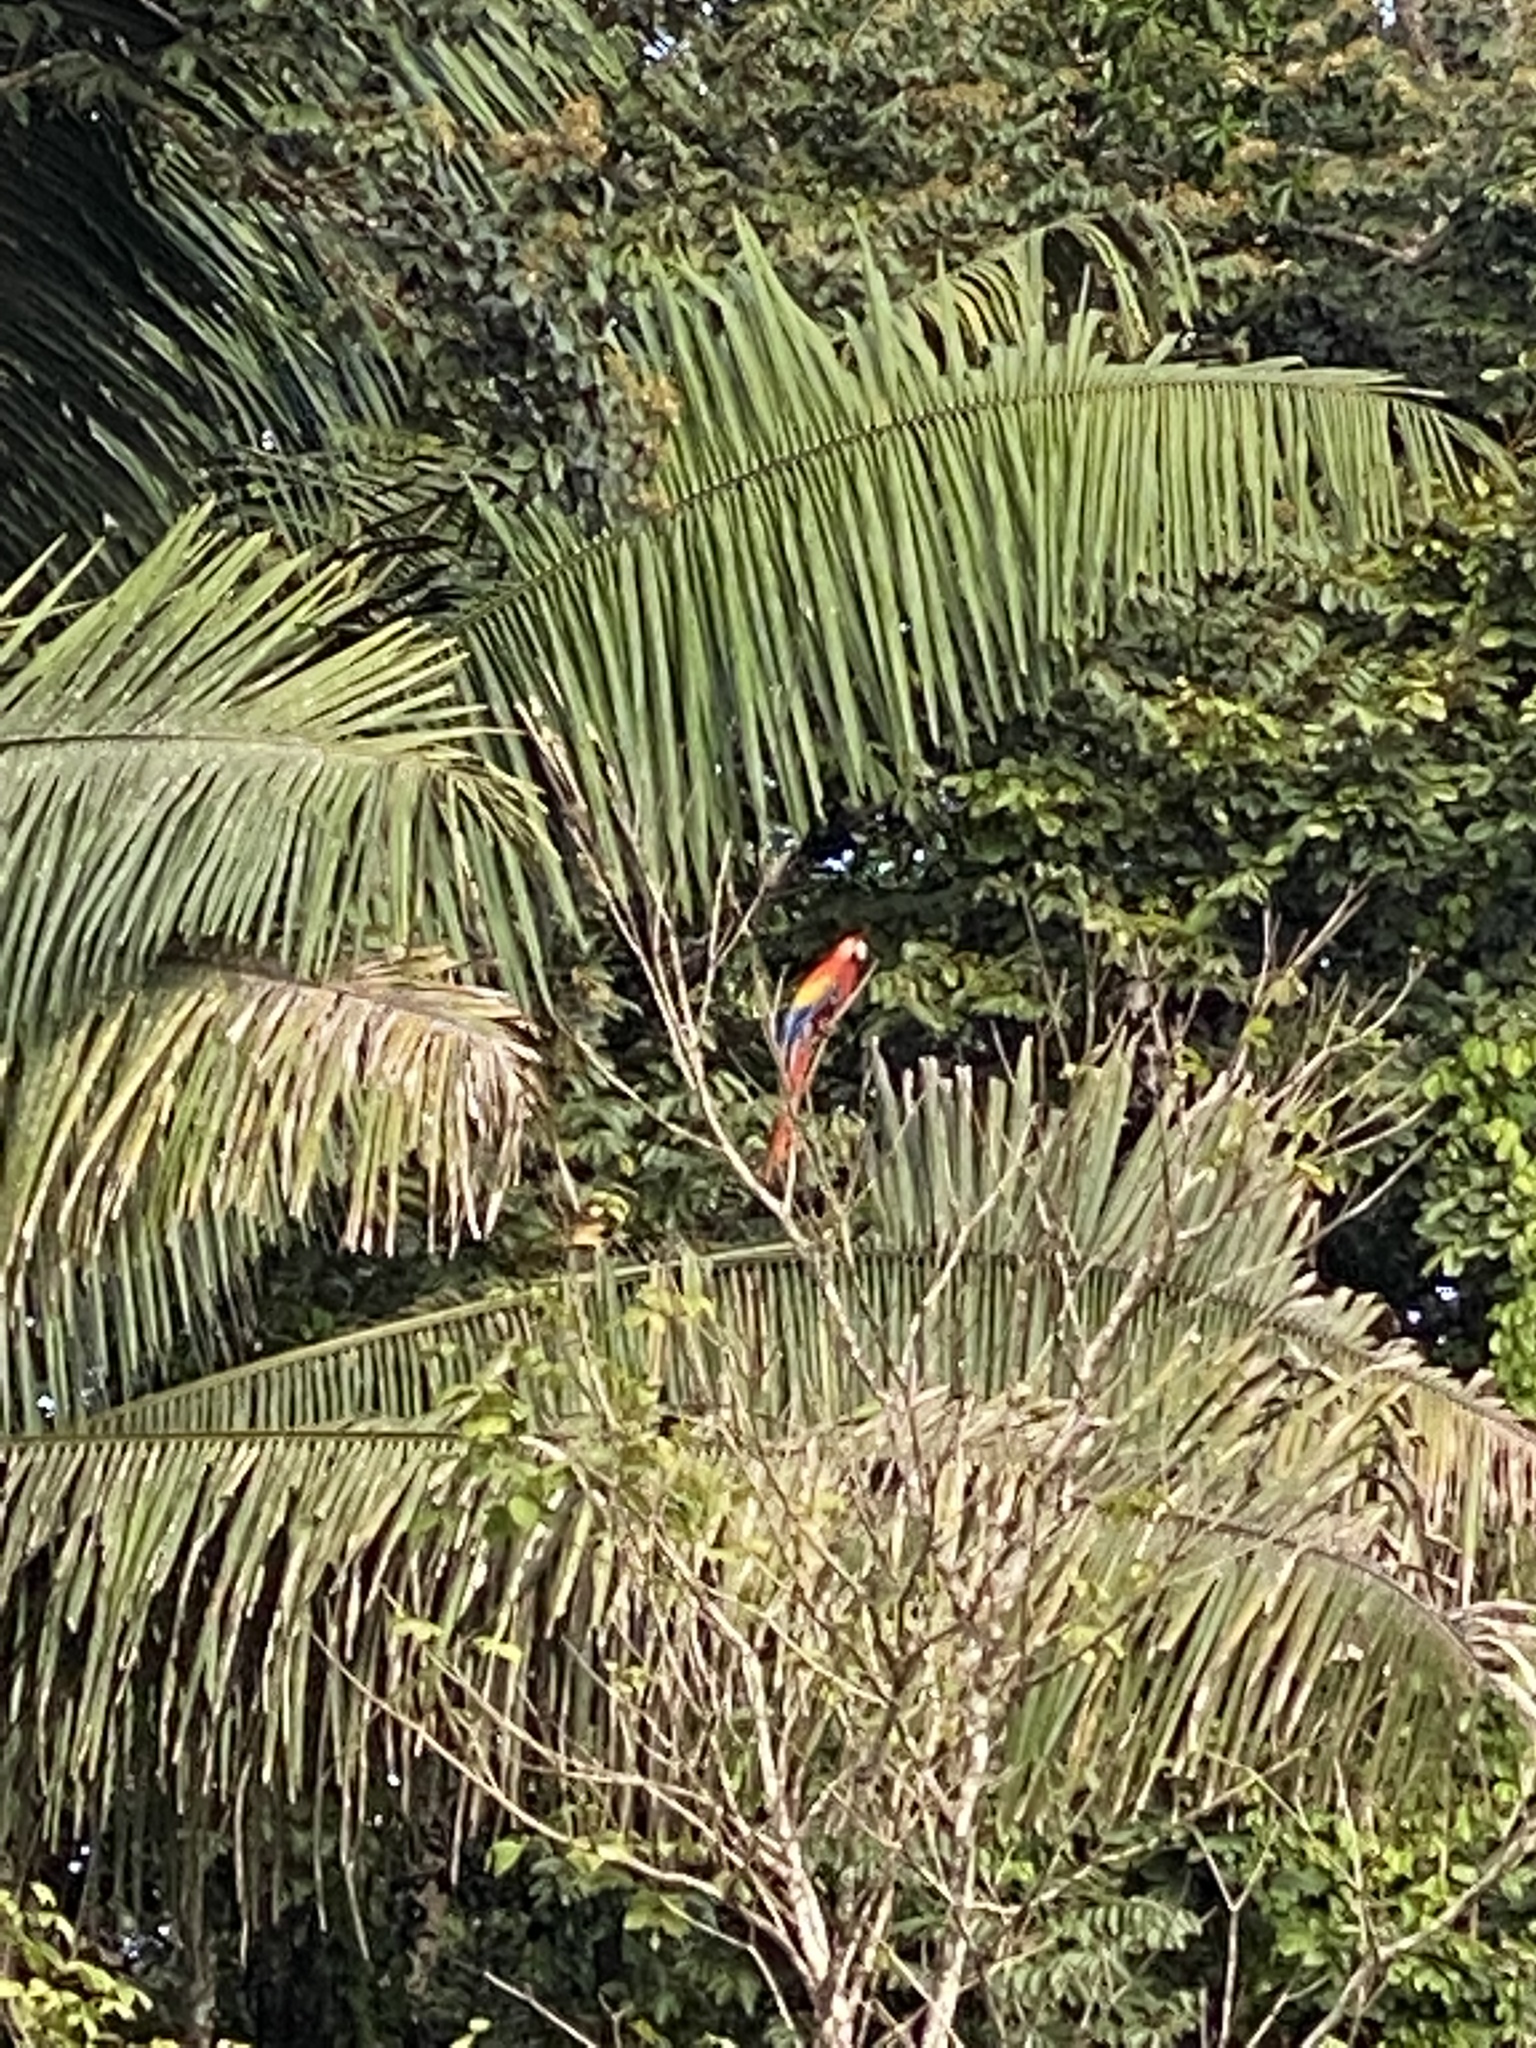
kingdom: Animalia
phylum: Chordata
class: Aves
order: Psittaciformes
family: Psittacidae
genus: Ara
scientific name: Ara macao
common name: Scarlet macaw
